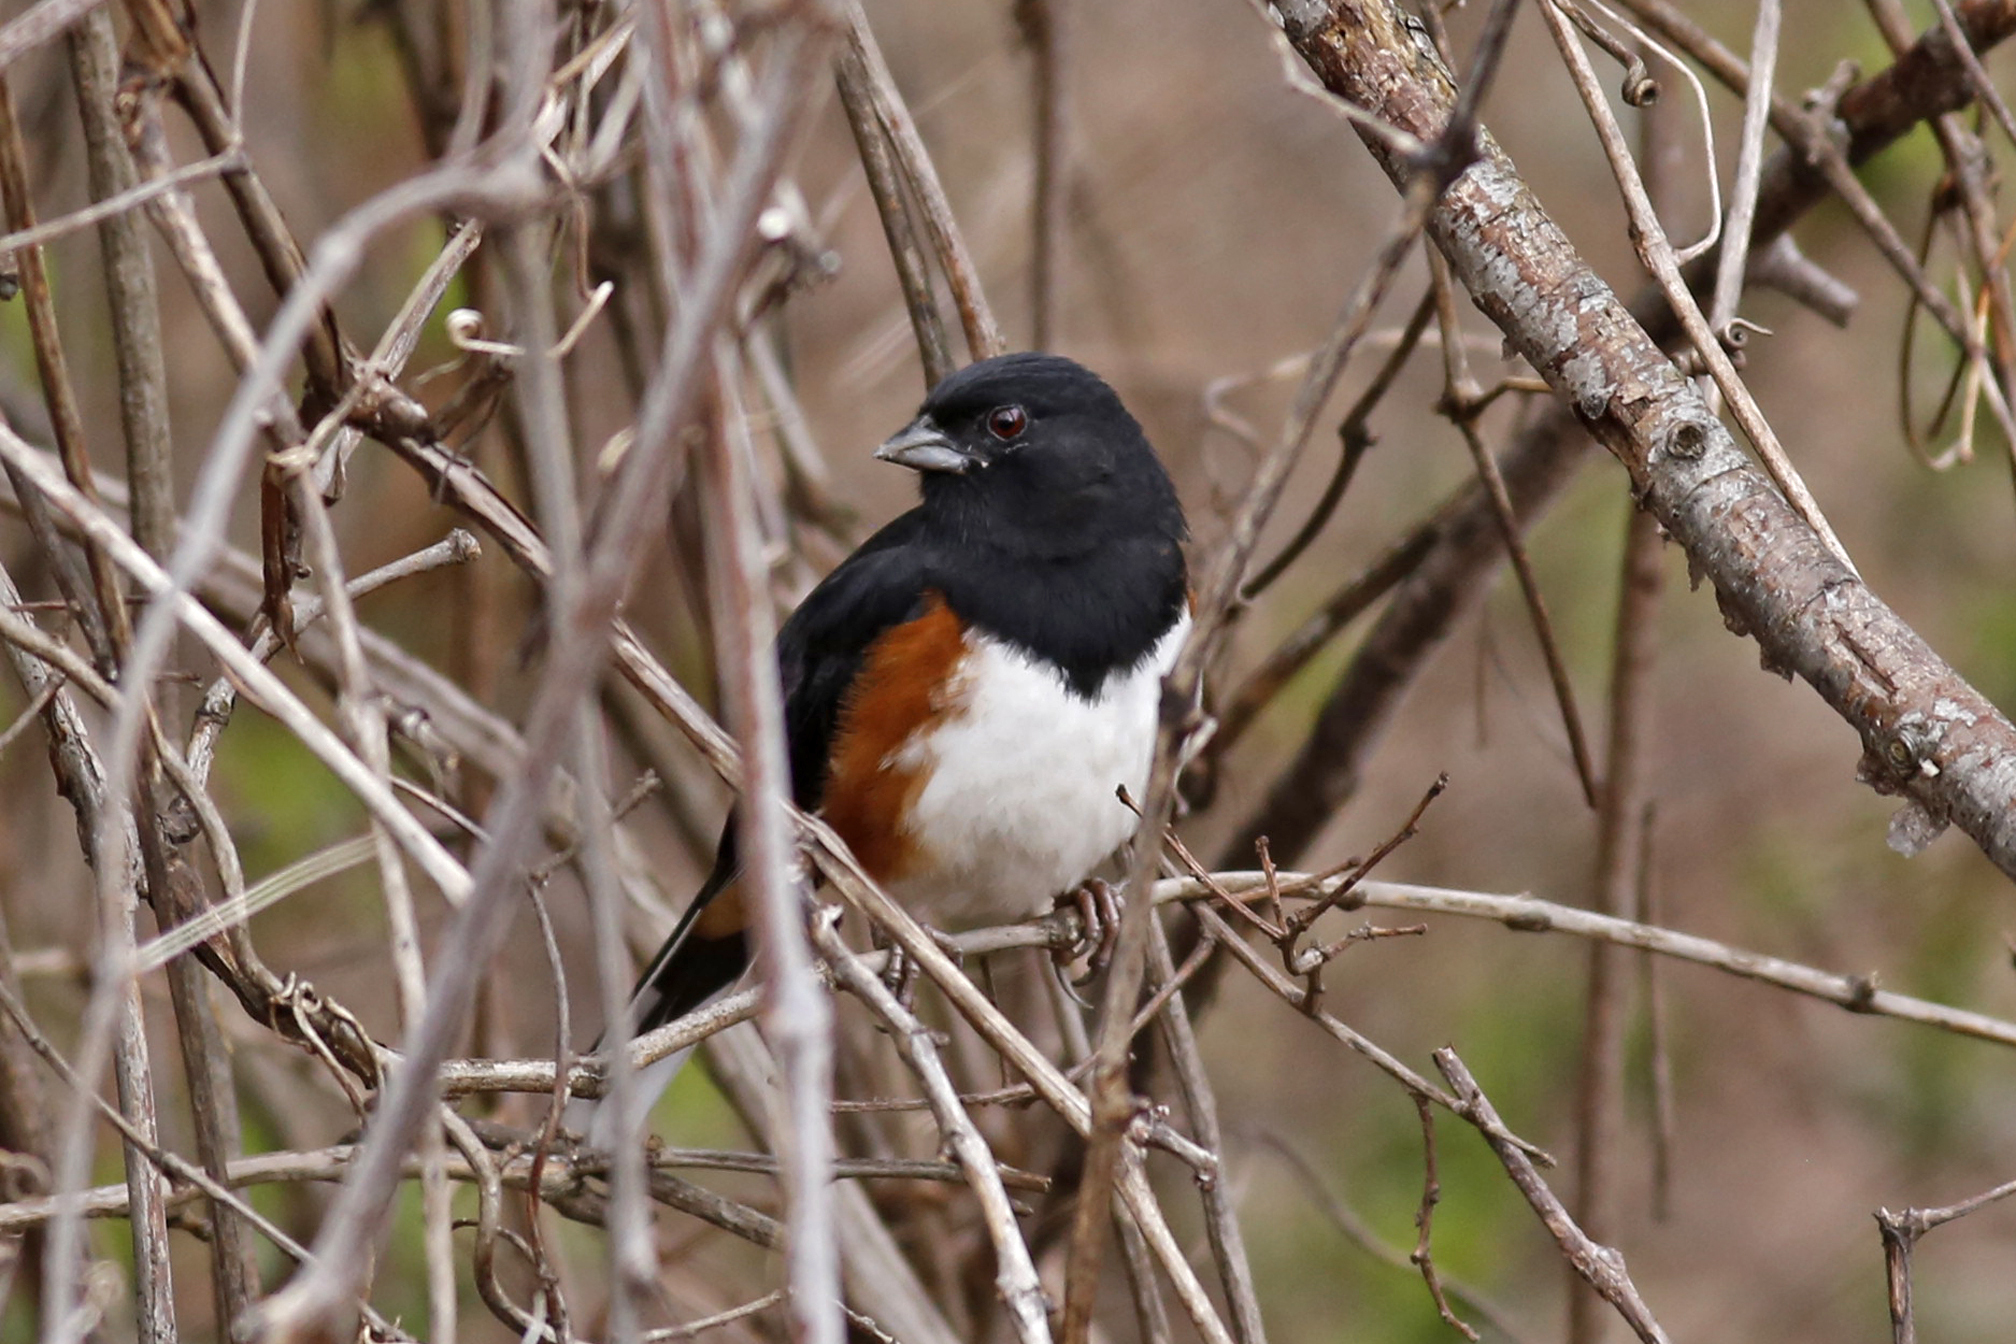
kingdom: Animalia
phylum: Chordata
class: Aves
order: Passeriformes
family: Passerellidae
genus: Pipilo
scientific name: Pipilo erythrophthalmus
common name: Eastern towhee
